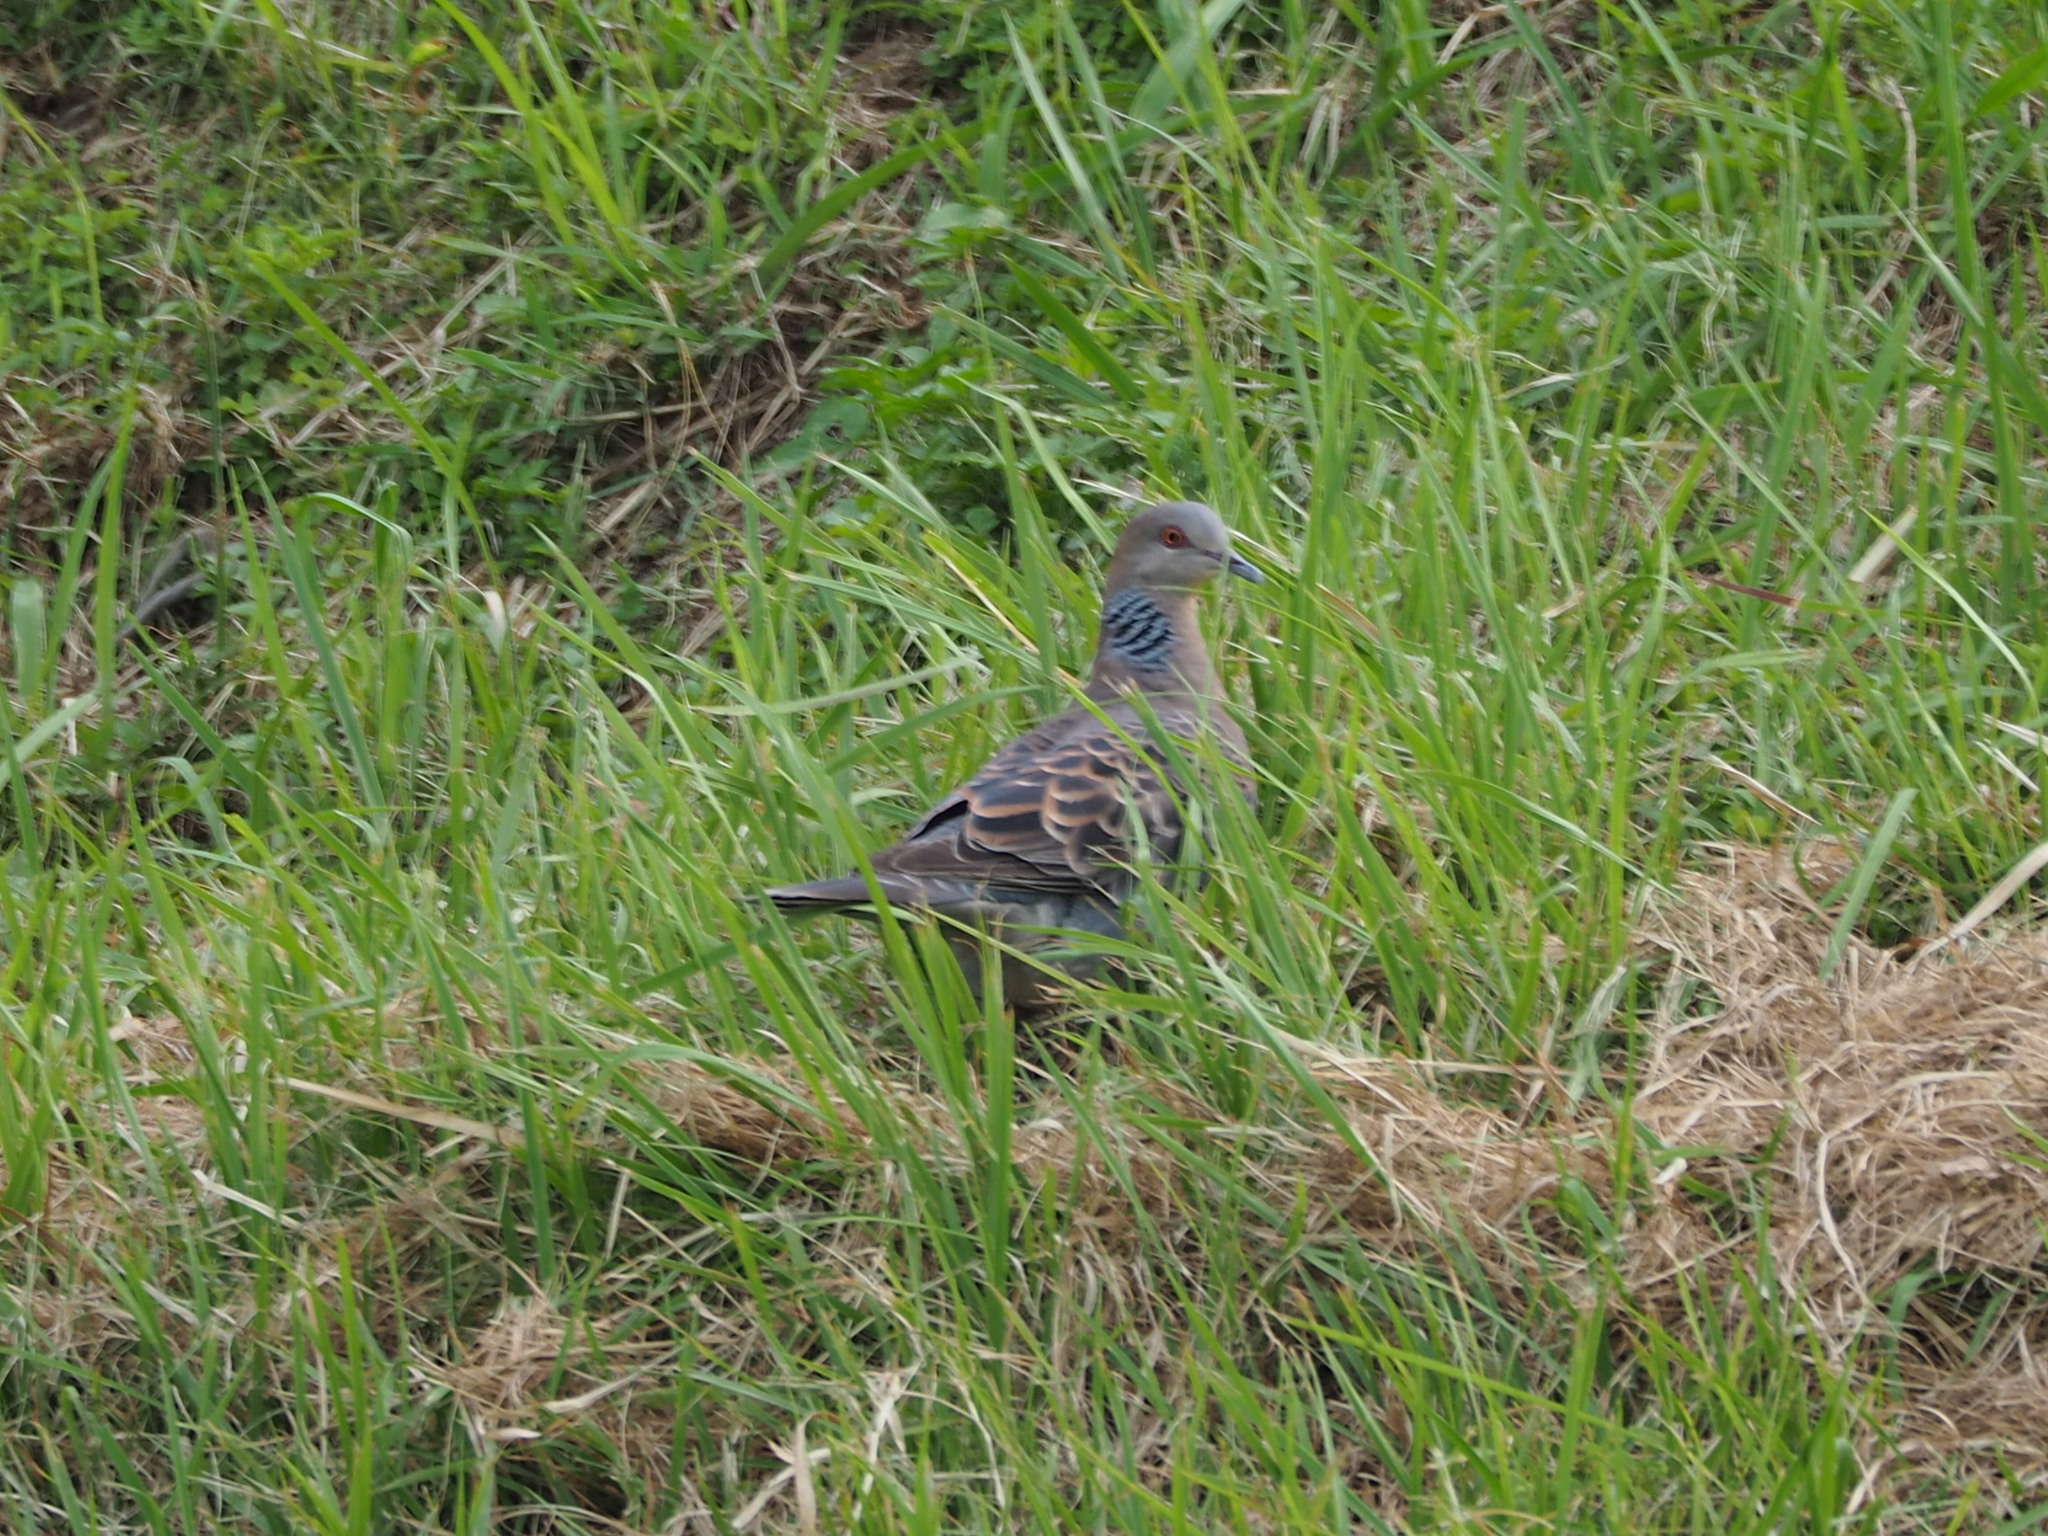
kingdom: Animalia
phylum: Chordata
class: Aves
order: Columbiformes
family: Columbidae
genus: Streptopelia
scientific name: Streptopelia orientalis
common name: Oriental turtle dove
